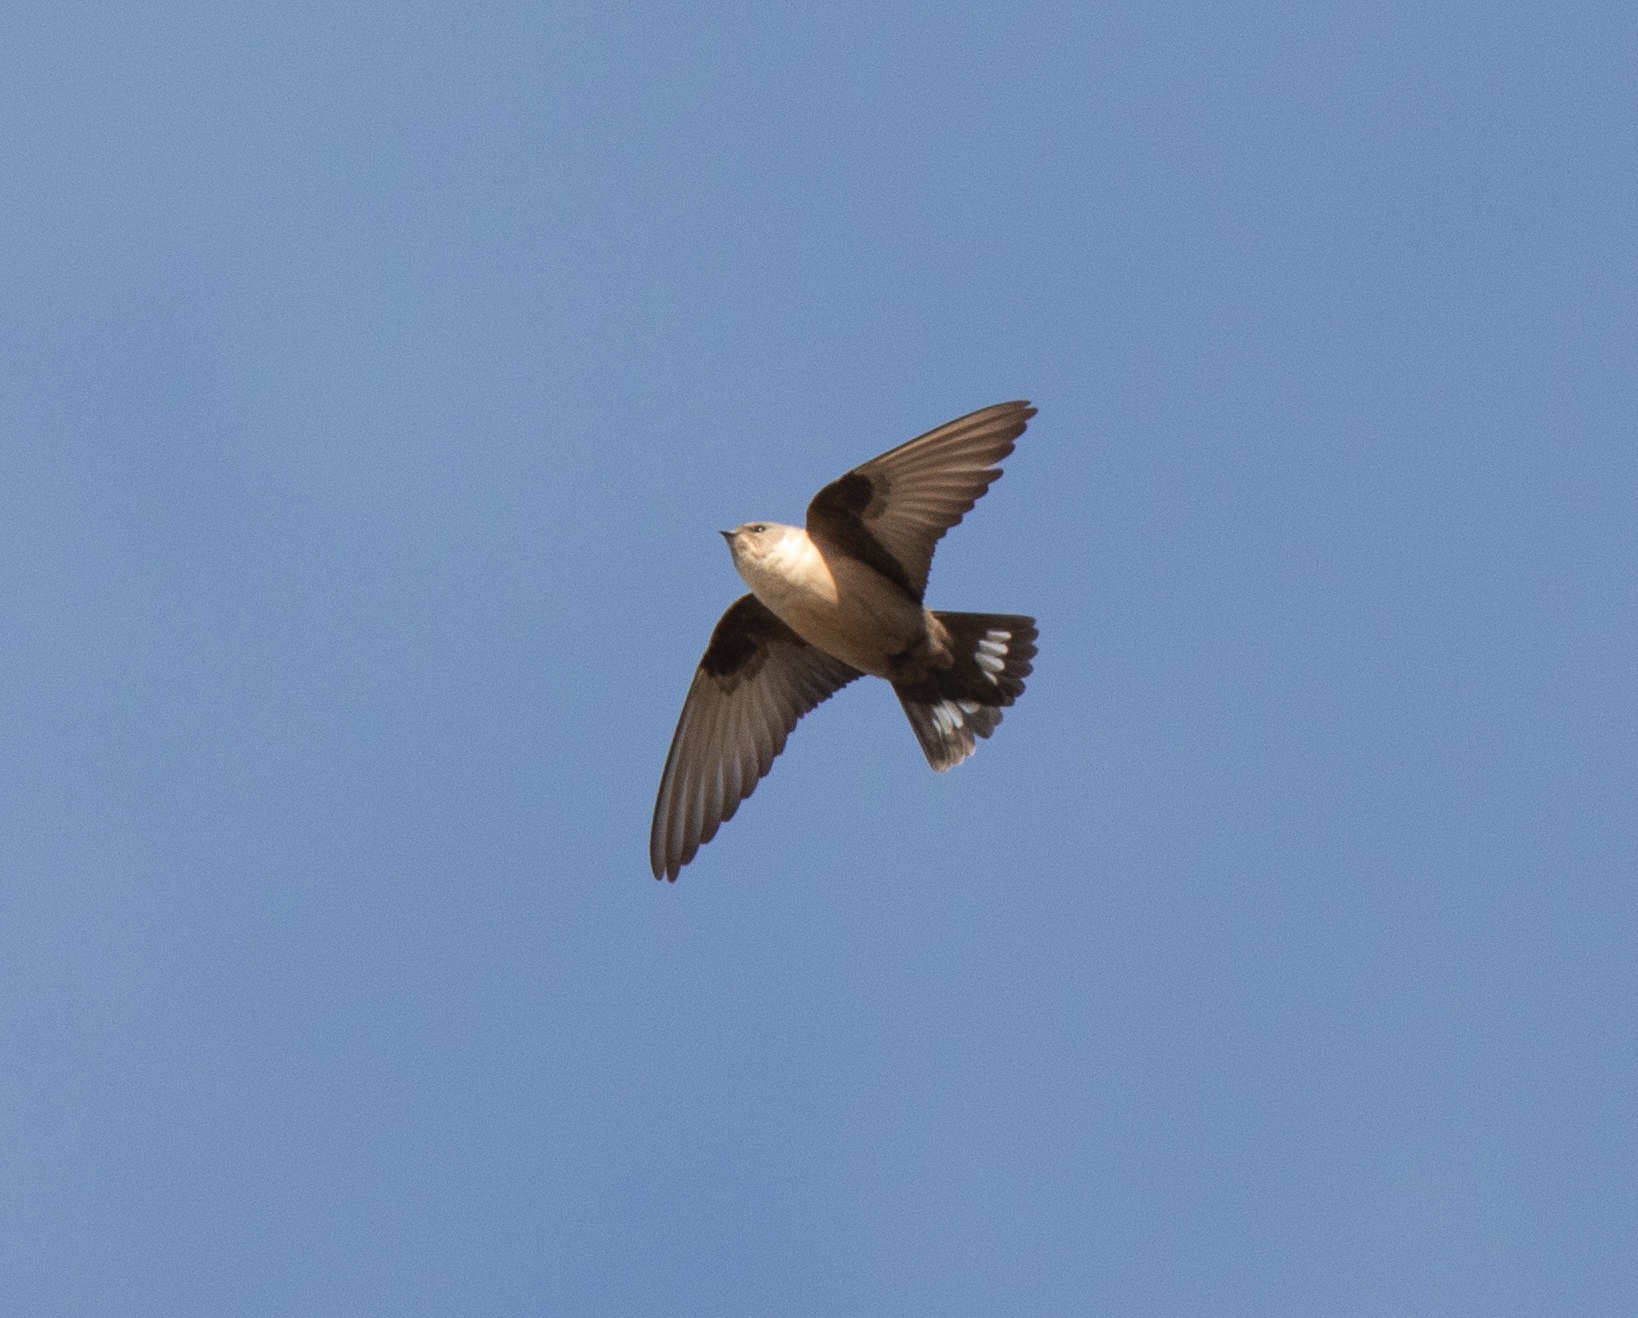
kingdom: Animalia
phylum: Chordata
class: Aves
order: Passeriformes
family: Hirundinidae
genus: Ptyonoprogne
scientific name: Ptyonoprogne rupestris
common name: Eurasian crag martin
